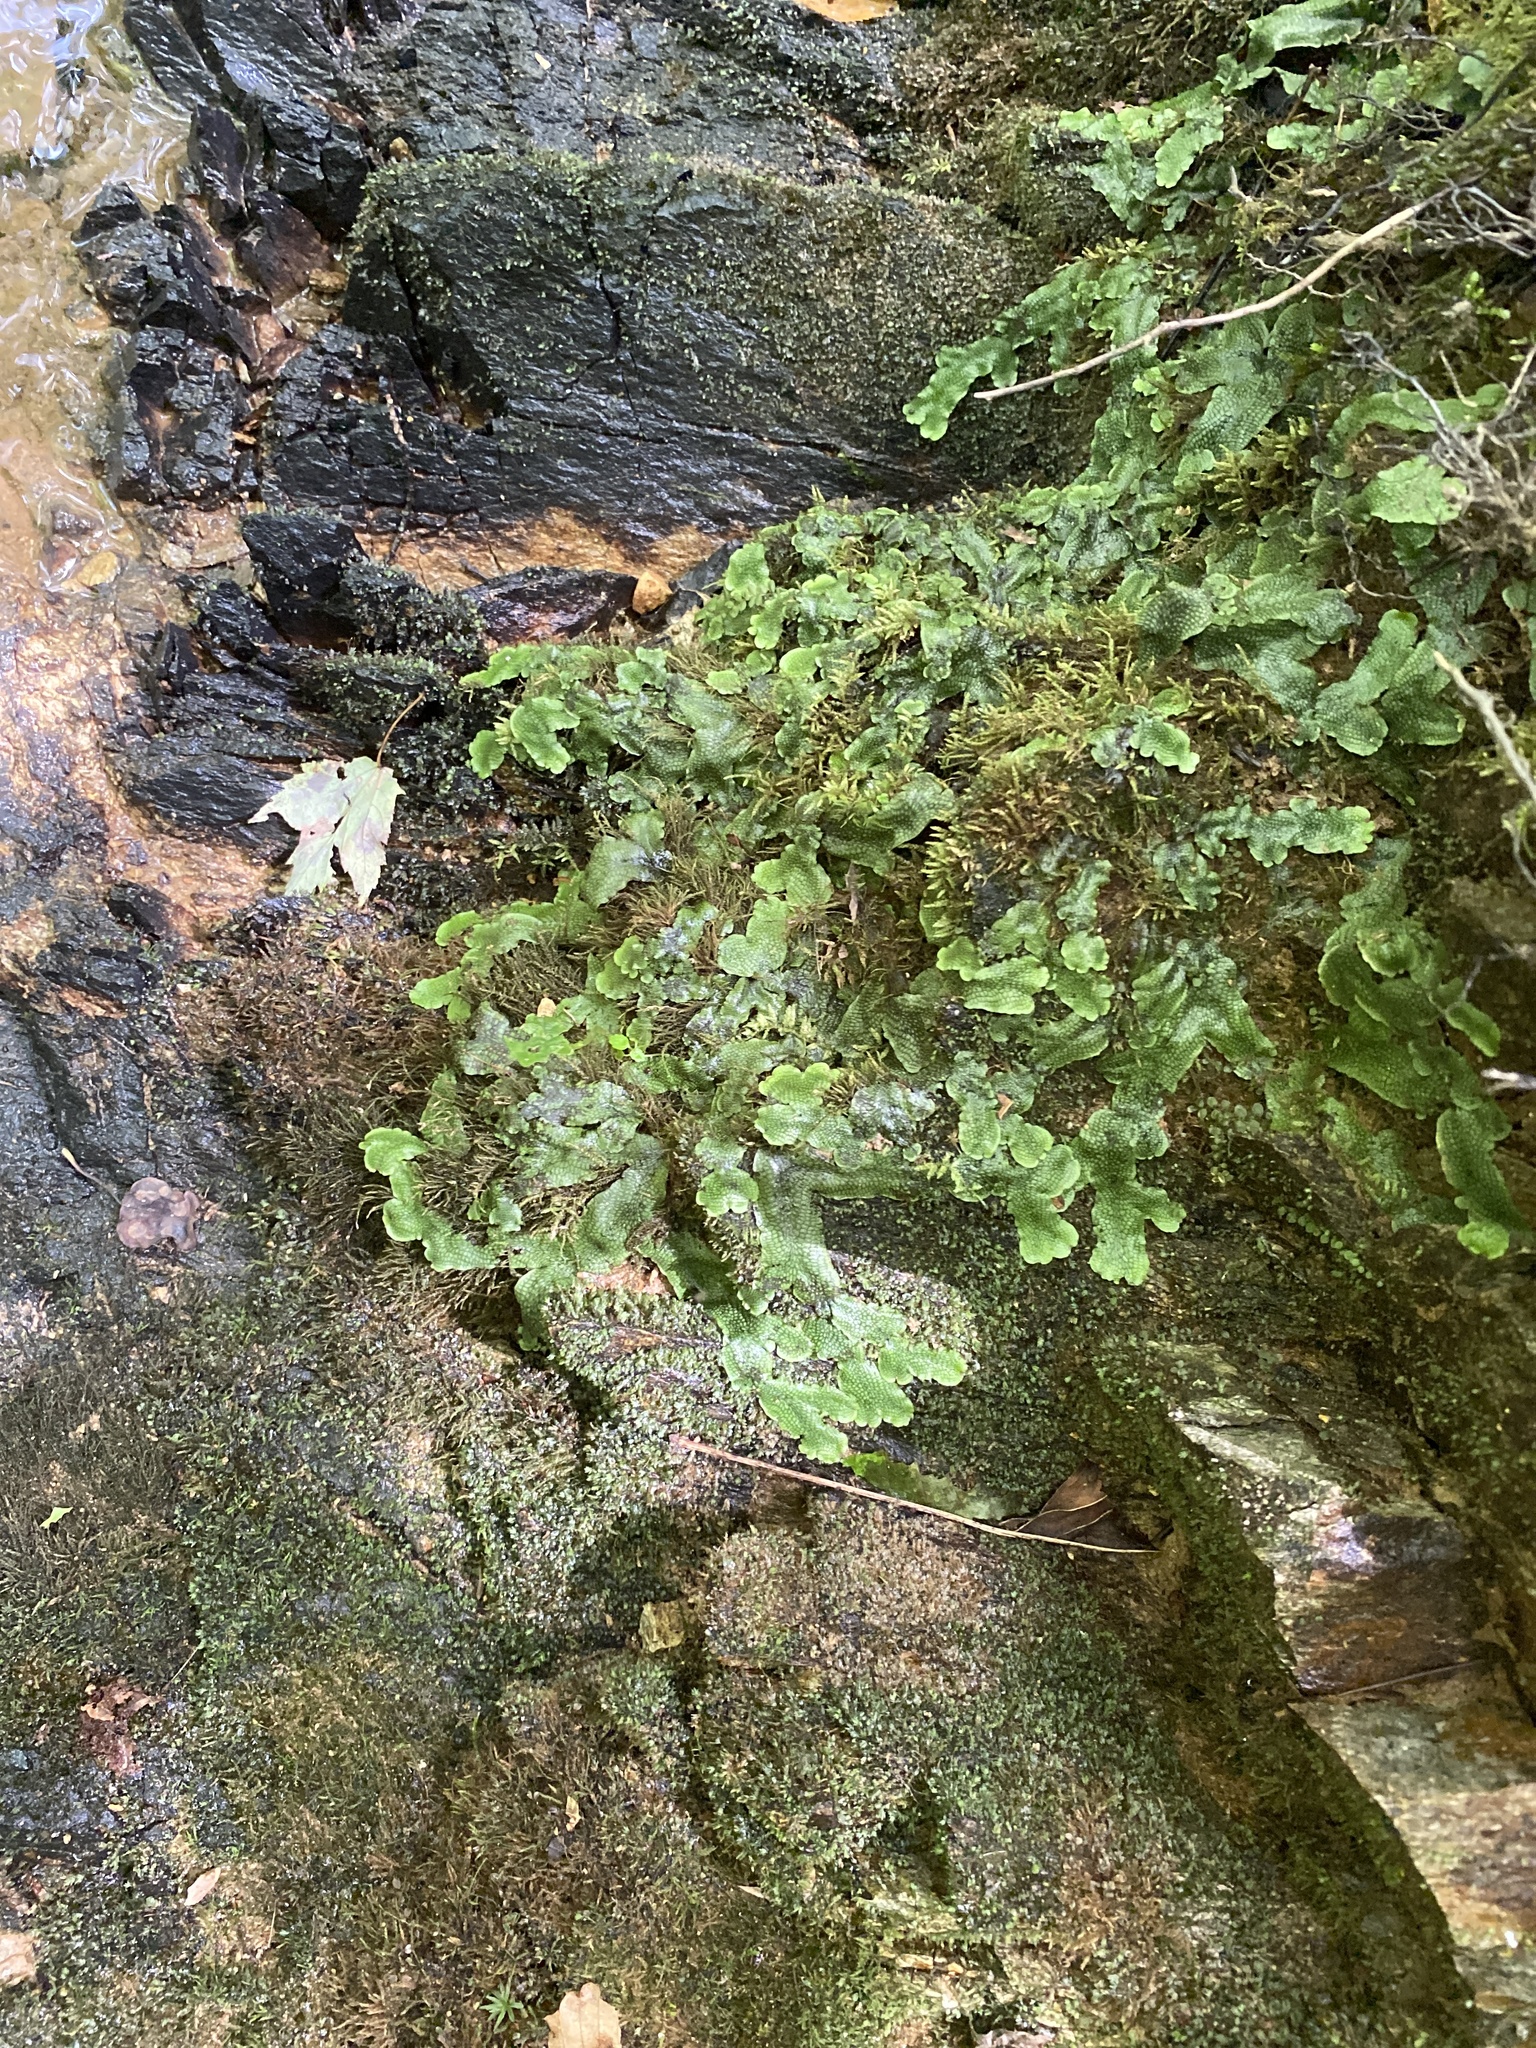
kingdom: Plantae
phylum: Marchantiophyta
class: Marchantiopsida
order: Marchantiales
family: Conocephalaceae
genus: Conocephalum
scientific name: Conocephalum salebrosum
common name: Cat-tongue liverwort
